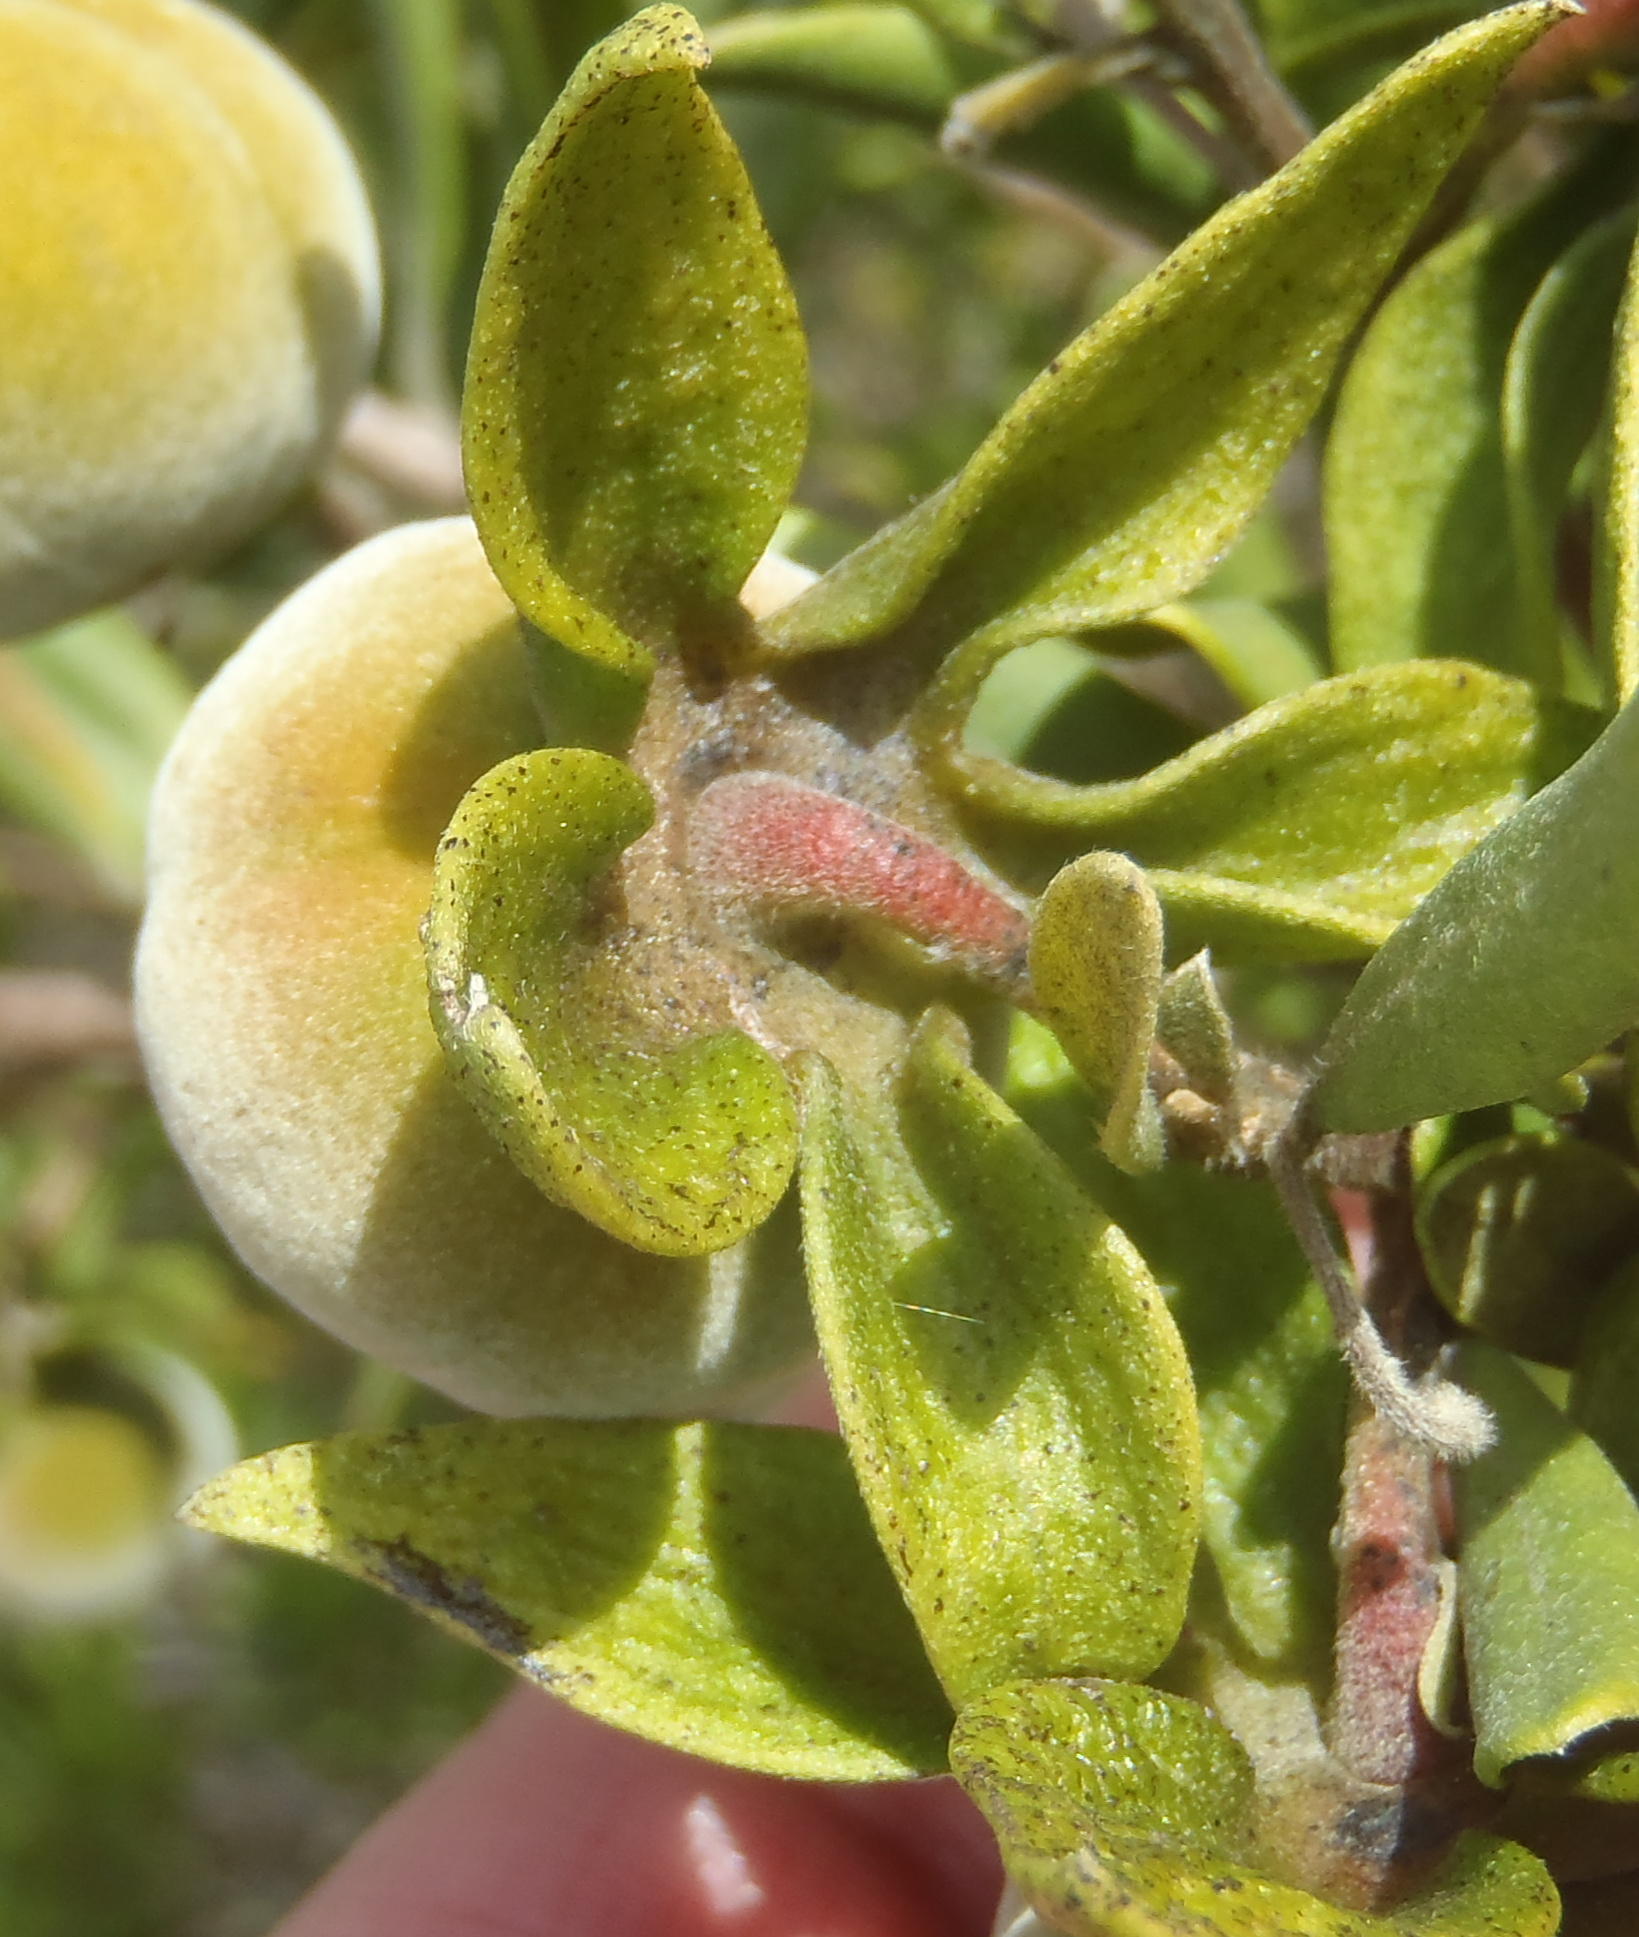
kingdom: Plantae
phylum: Tracheophyta
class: Magnoliopsida
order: Ericales
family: Ebenaceae
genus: Diospyros
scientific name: Diospyros dichrophylla
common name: Common star-apple
